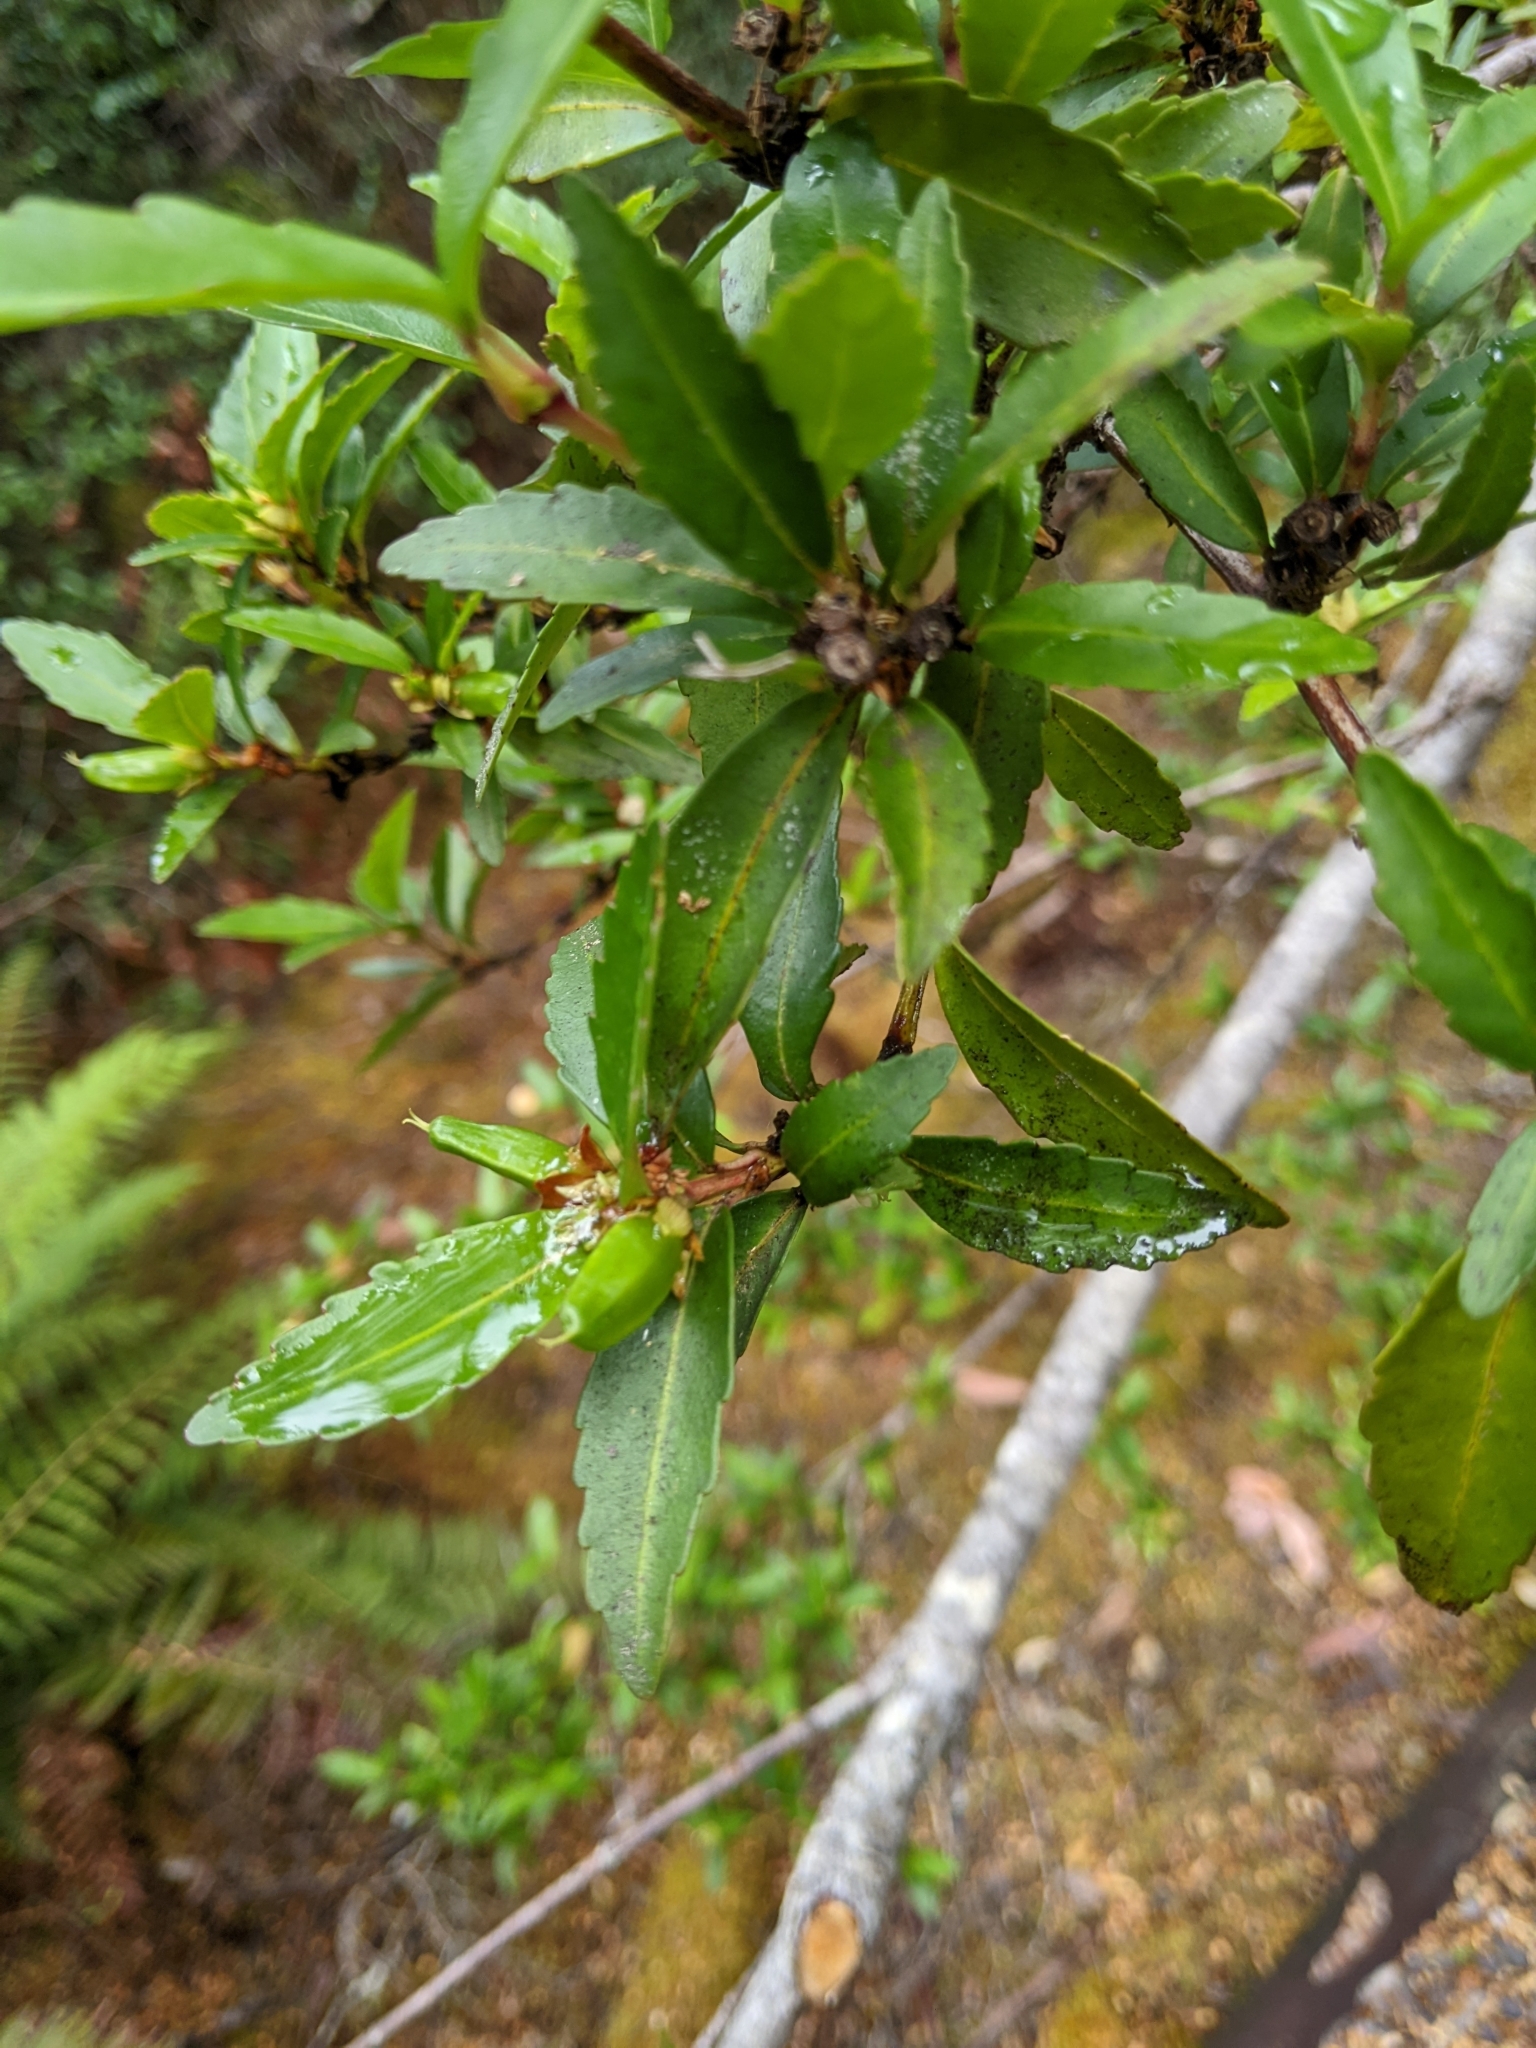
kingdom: Plantae
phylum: Tracheophyta
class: Magnoliopsida
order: Oxalidales
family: Cunoniaceae
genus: Anodopetalum
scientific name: Anodopetalum biglandulosum
